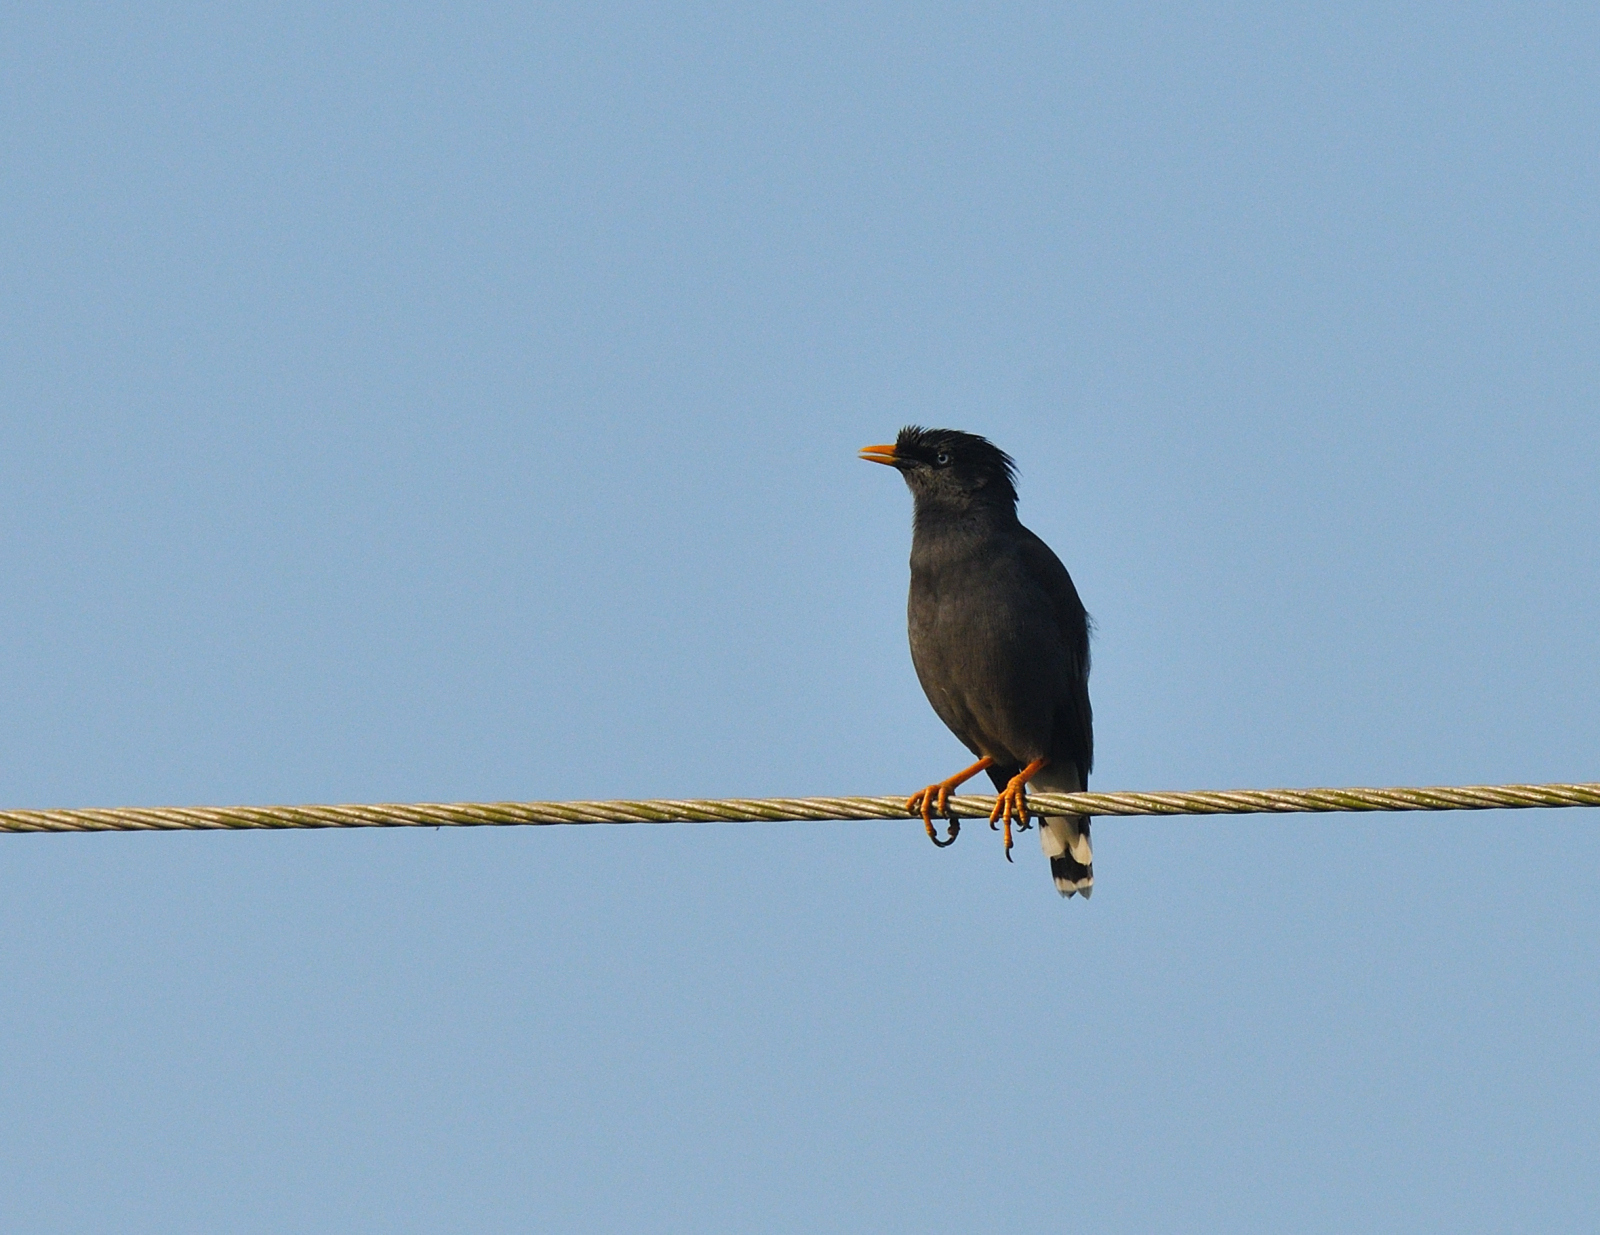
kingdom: Animalia
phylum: Chordata
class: Aves
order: Passeriformes
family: Sturnidae
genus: Acridotheres
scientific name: Acridotheres fuscus
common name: Jungle myna
